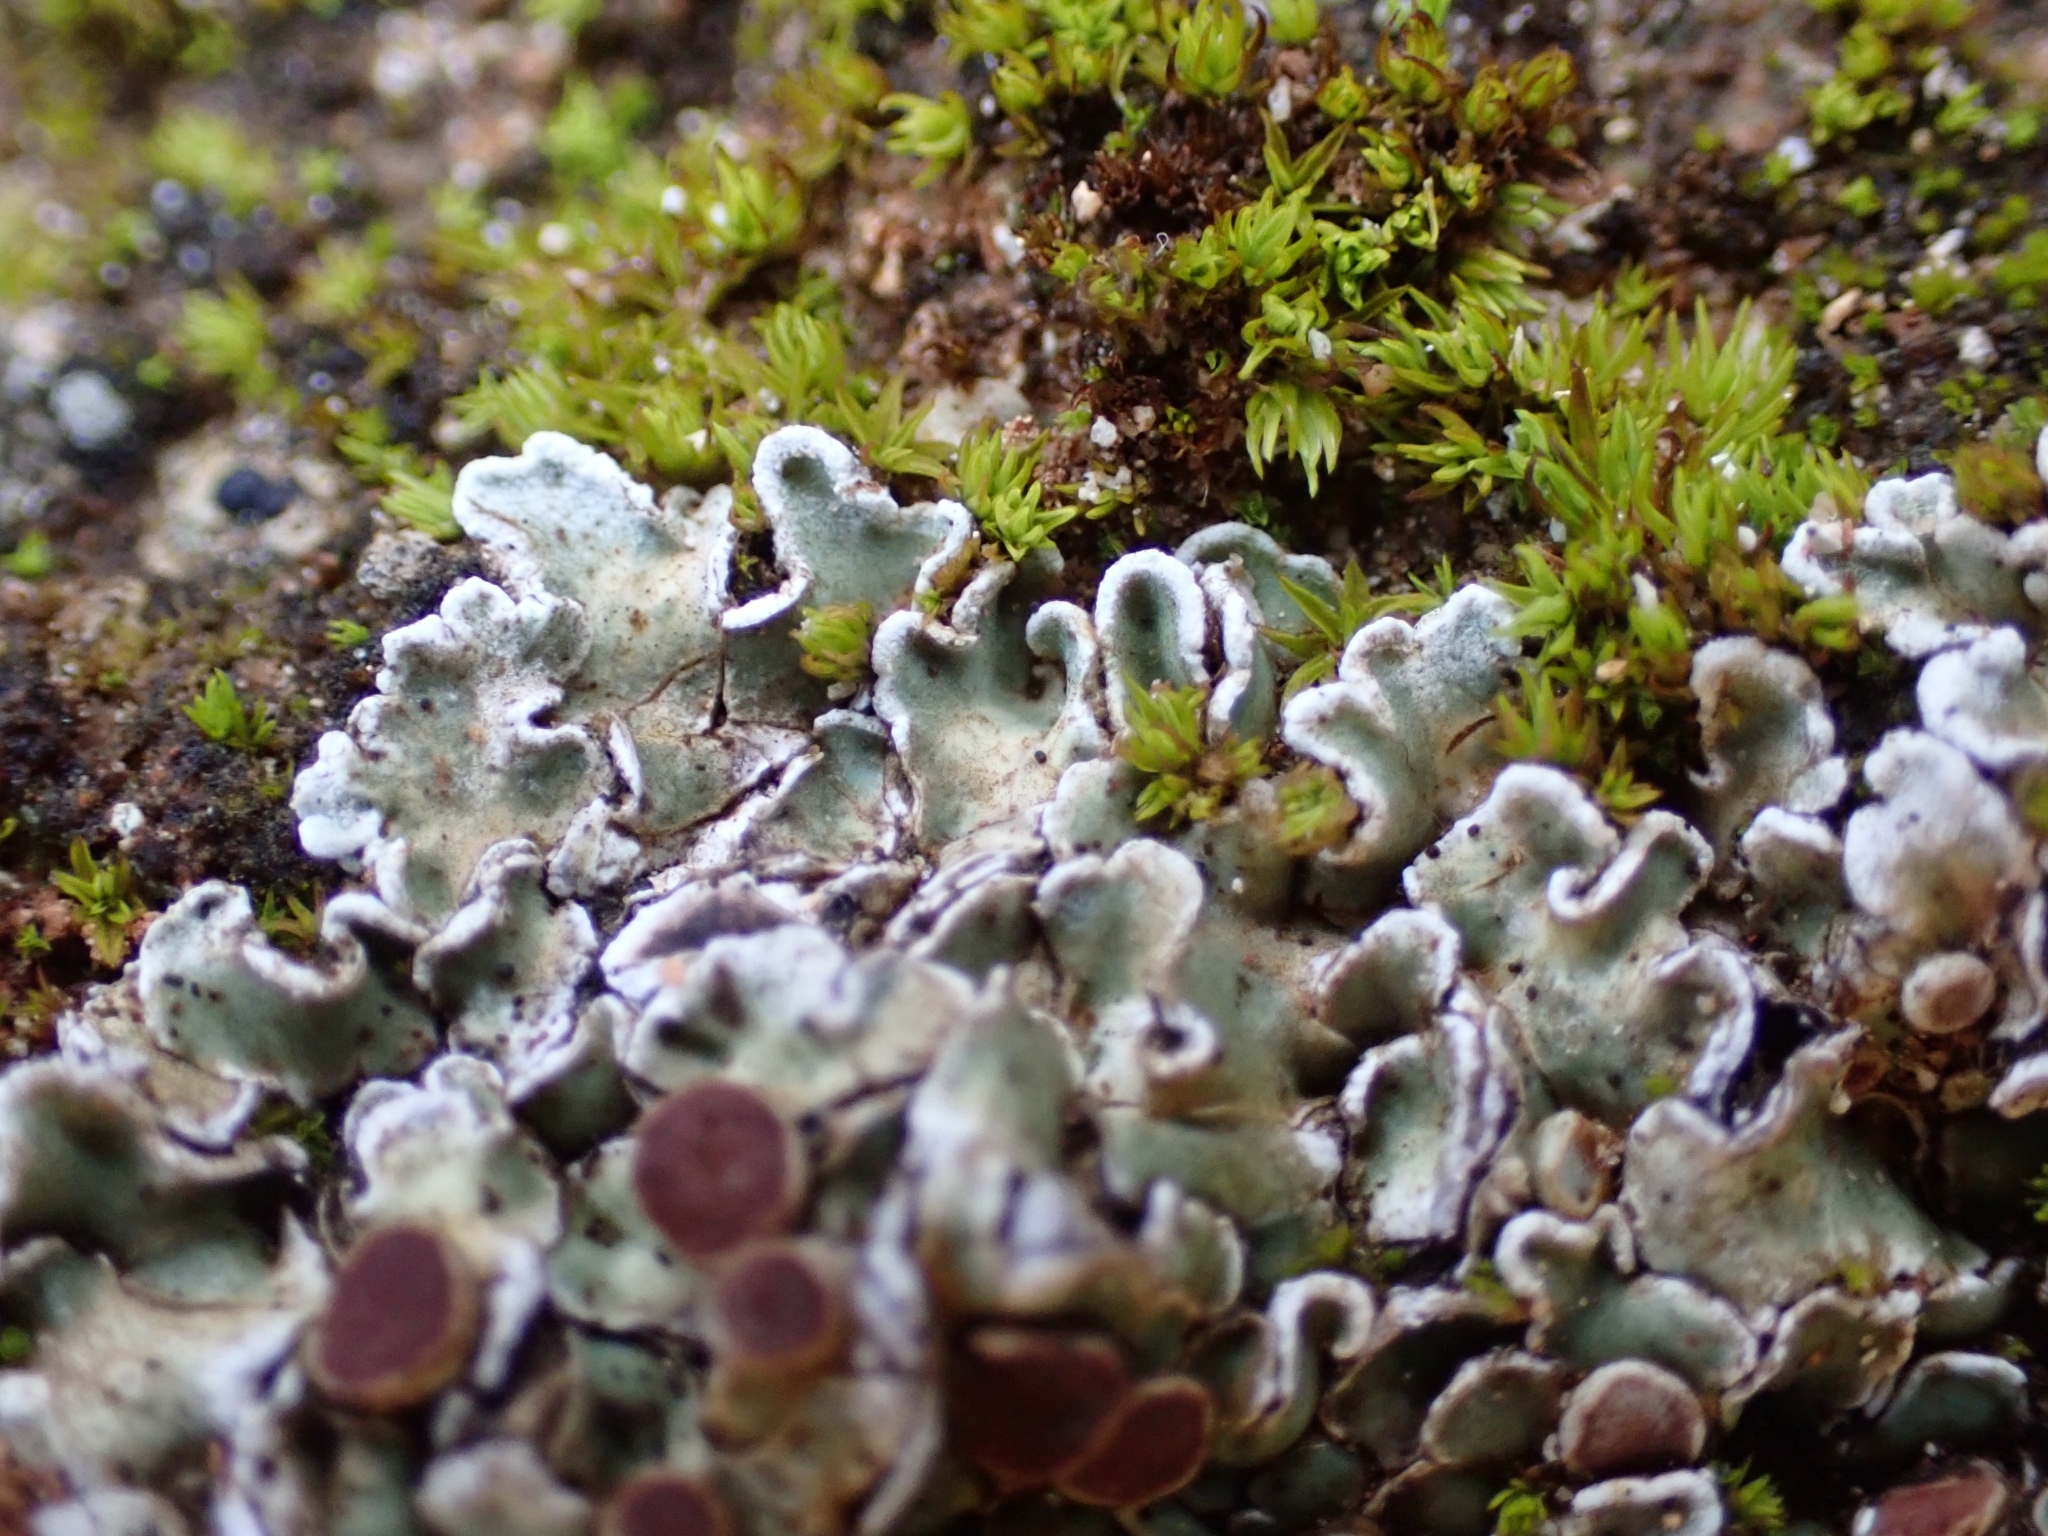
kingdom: Fungi
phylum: Ascomycota
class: Lecanoromycetes
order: Lecanorales
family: Stereocaulaceae
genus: Squamarina
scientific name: Squamarina cartilaginea
